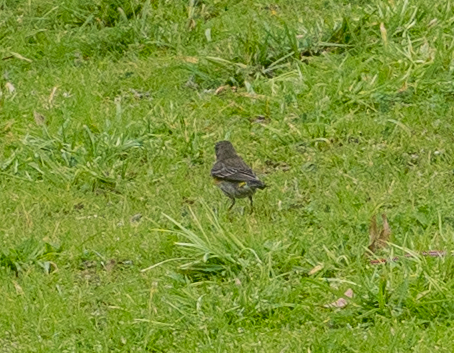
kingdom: Animalia
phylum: Chordata
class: Aves
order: Passeriformes
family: Parulidae
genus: Setophaga
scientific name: Setophaga coronata
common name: Myrtle warbler
